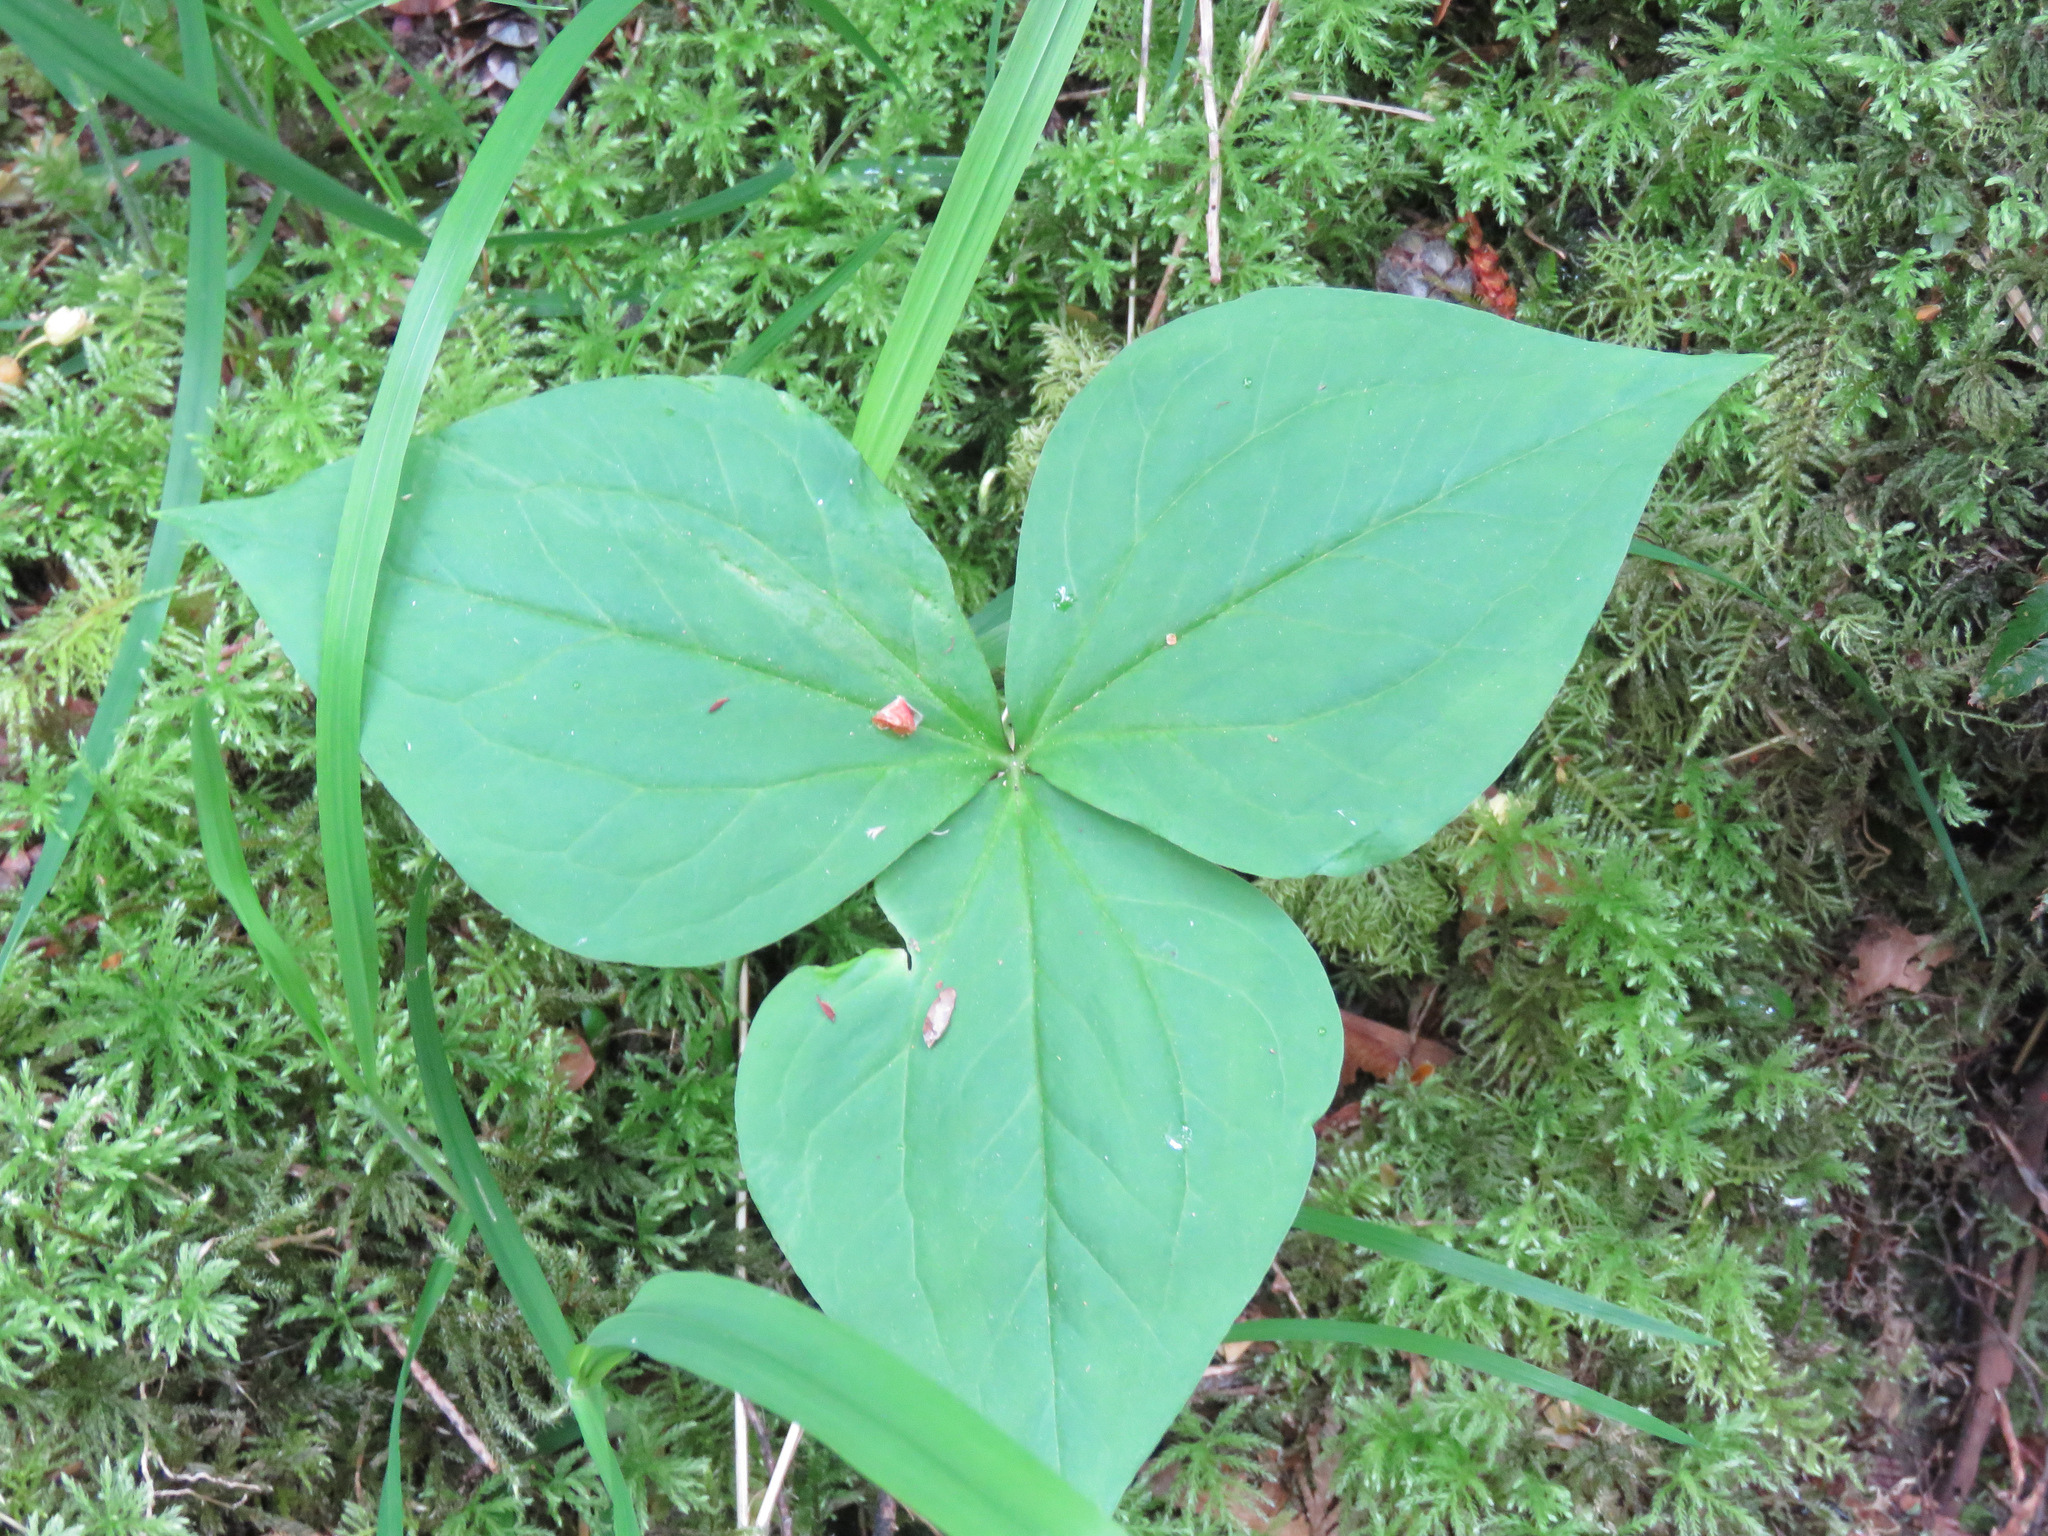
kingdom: Plantae
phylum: Tracheophyta
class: Liliopsida
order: Liliales
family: Melanthiaceae
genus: Trillium
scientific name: Trillium ovatum
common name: Pacific trillium
